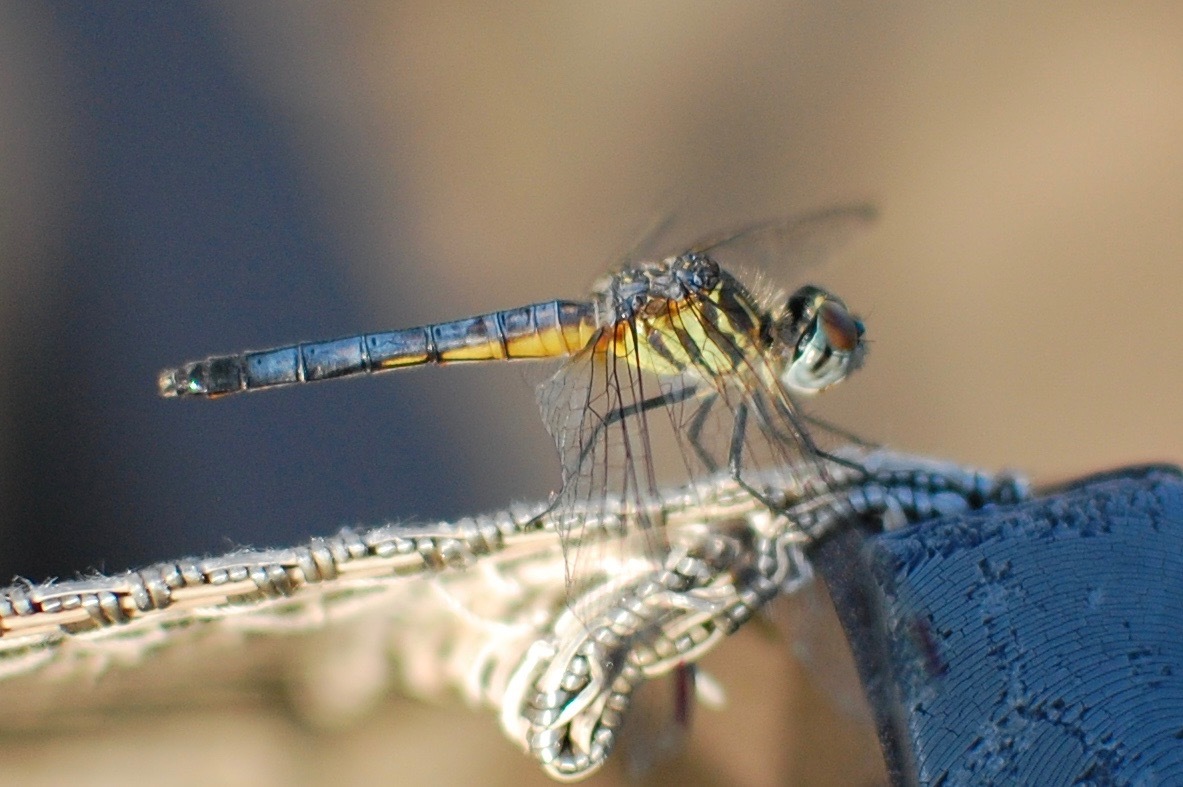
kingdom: Animalia
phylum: Arthropoda
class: Insecta
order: Odonata
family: Libellulidae
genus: Pachydiplax
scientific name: Pachydiplax longipennis
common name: Blue dasher
